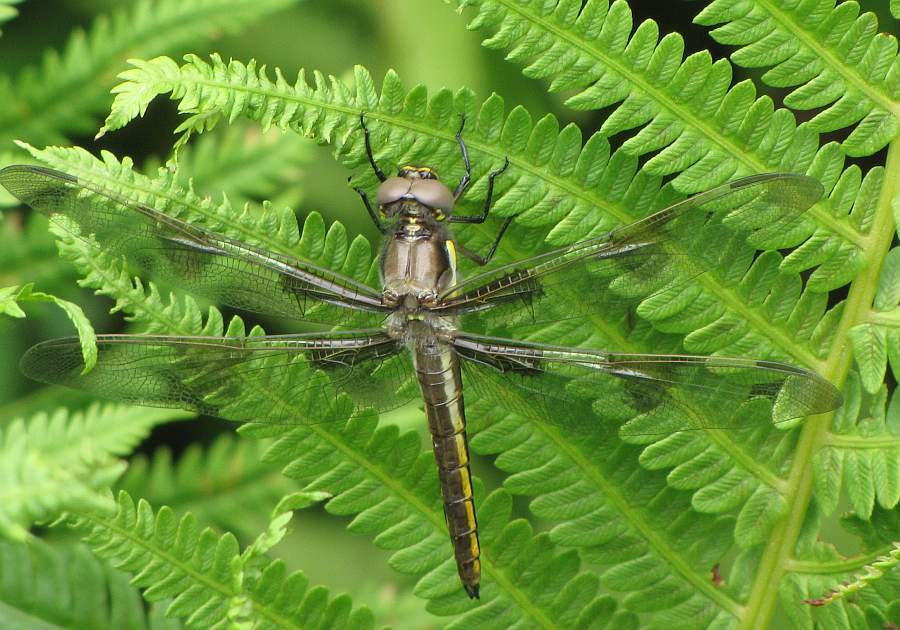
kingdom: Animalia
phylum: Arthropoda
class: Insecta
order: Odonata
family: Libellulidae
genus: Libellula
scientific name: Libellula pulchella
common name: Twelve-spotted skimmer
